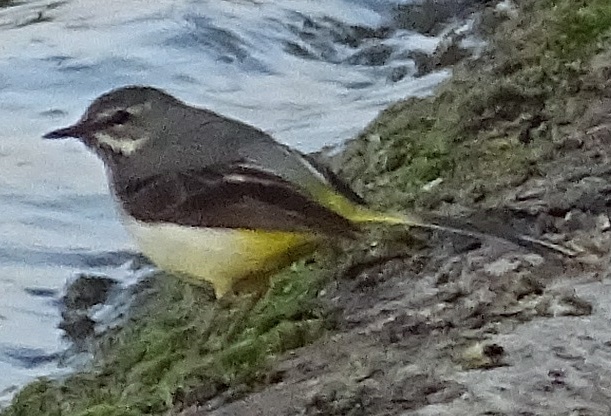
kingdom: Animalia
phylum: Chordata
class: Aves
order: Passeriformes
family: Motacillidae
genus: Motacilla
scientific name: Motacilla cinerea
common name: Grey wagtail
